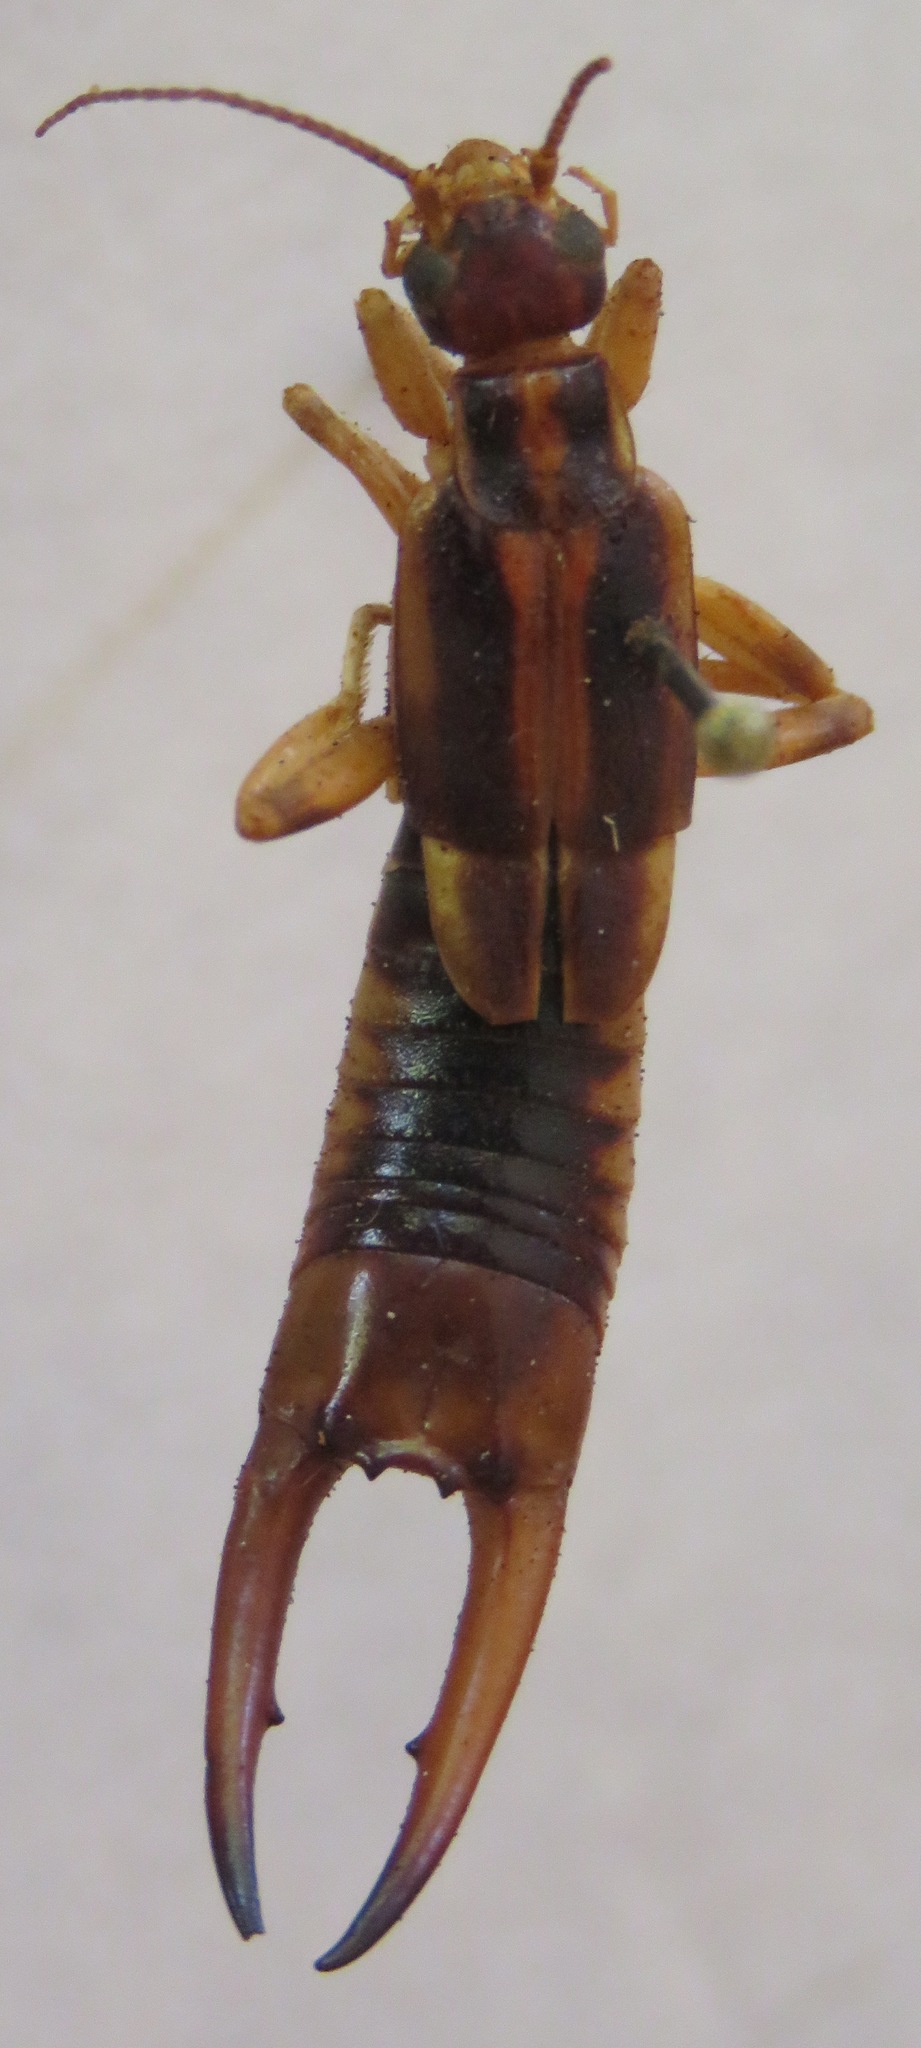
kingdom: Animalia
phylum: Arthropoda
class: Insecta
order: Dermaptera
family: Labiduridae
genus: Labidura
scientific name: Labidura riparia
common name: Striped earwig
